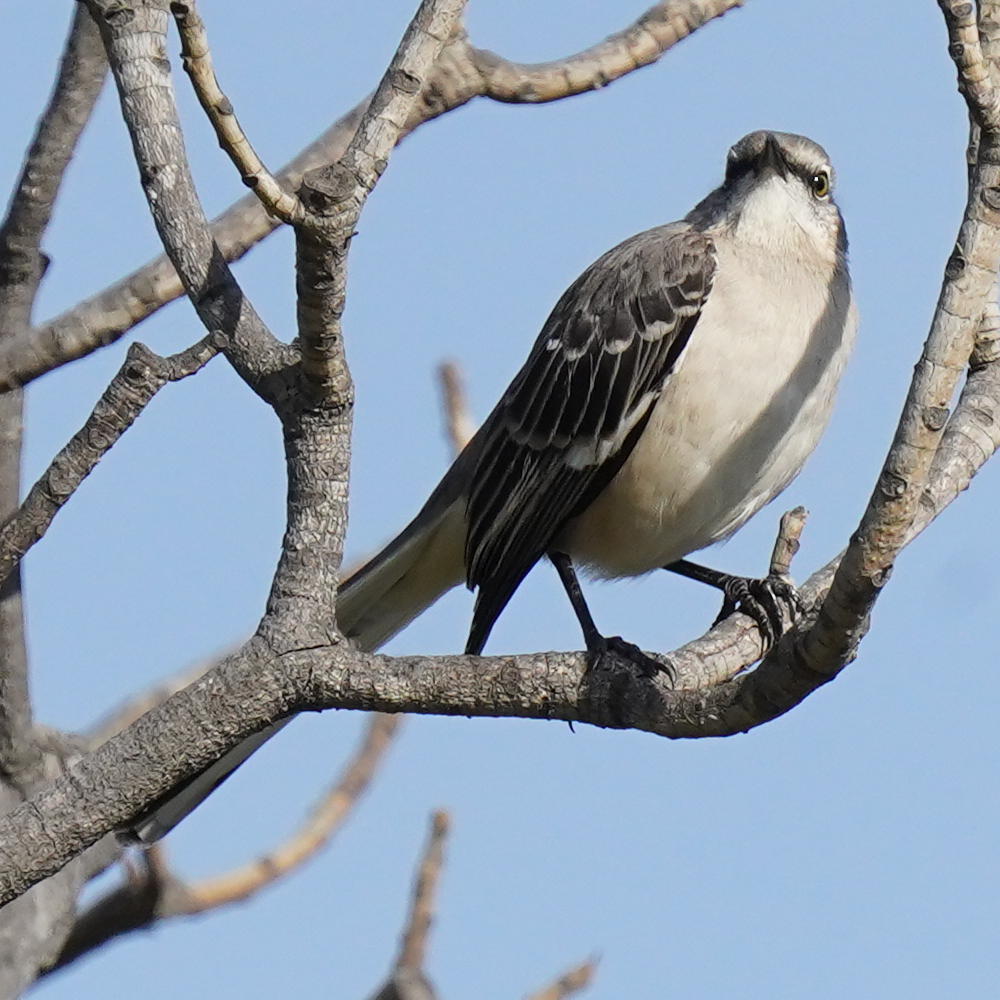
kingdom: Animalia
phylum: Chordata
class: Aves
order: Passeriformes
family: Mimidae
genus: Mimus
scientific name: Mimus polyglottos
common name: Northern mockingbird
